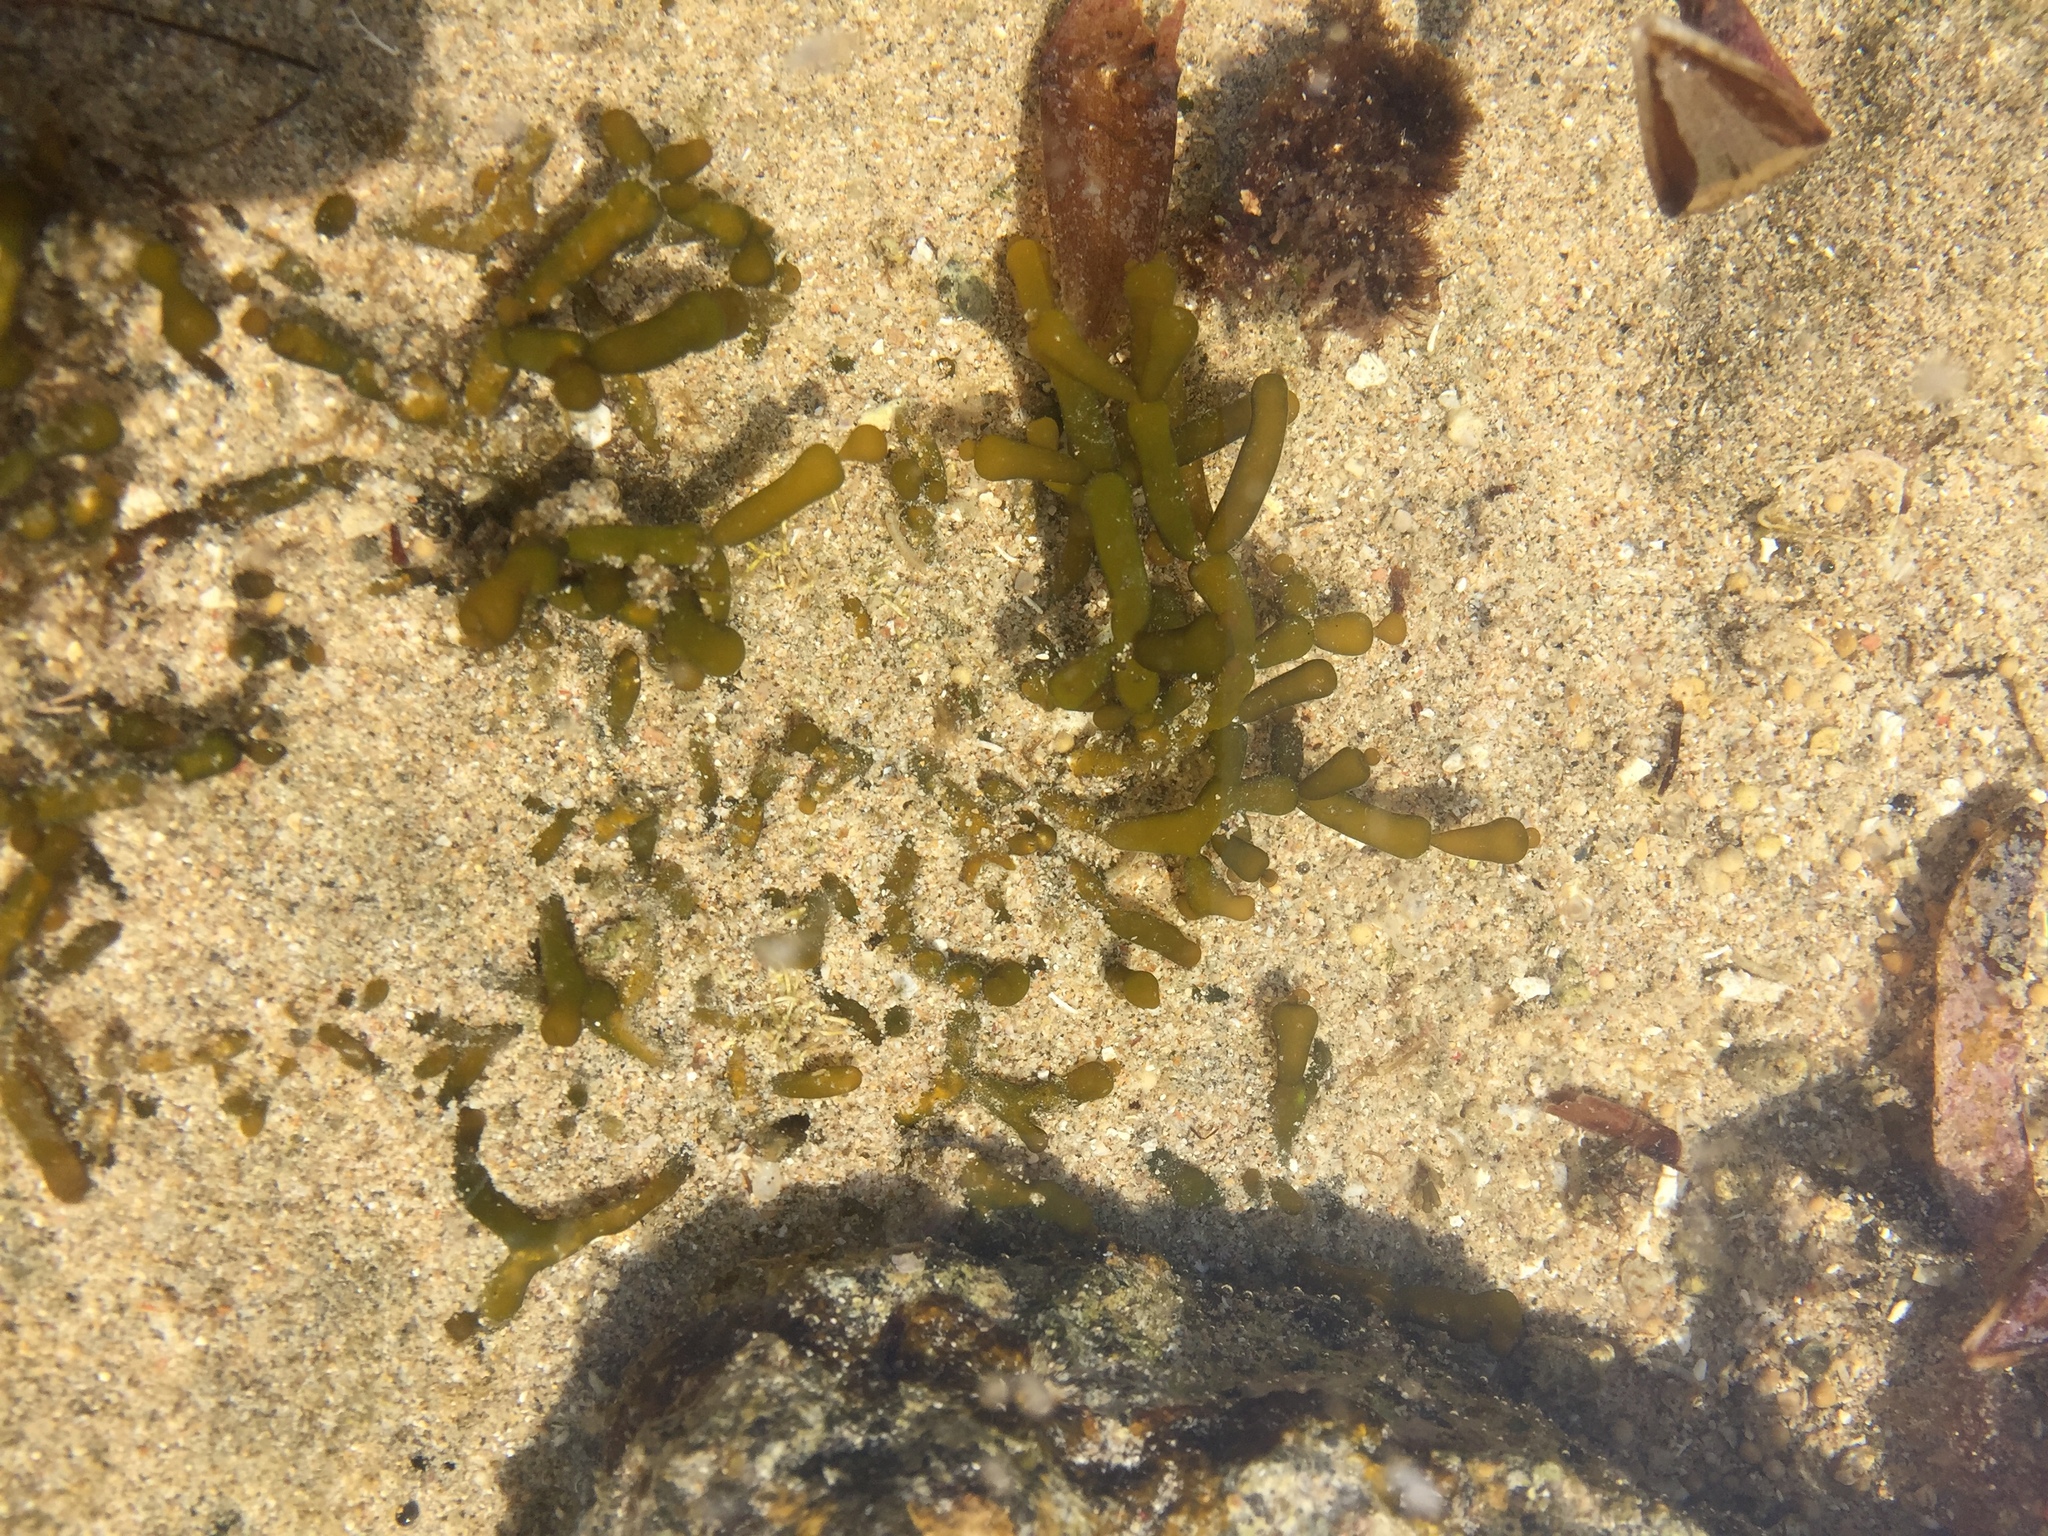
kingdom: Plantae
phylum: Rhodophyta
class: Florideophyceae
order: Gracilariales
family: Gracilariaceae
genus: Gracilaria
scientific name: Gracilaria salicornia
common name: Red algae
